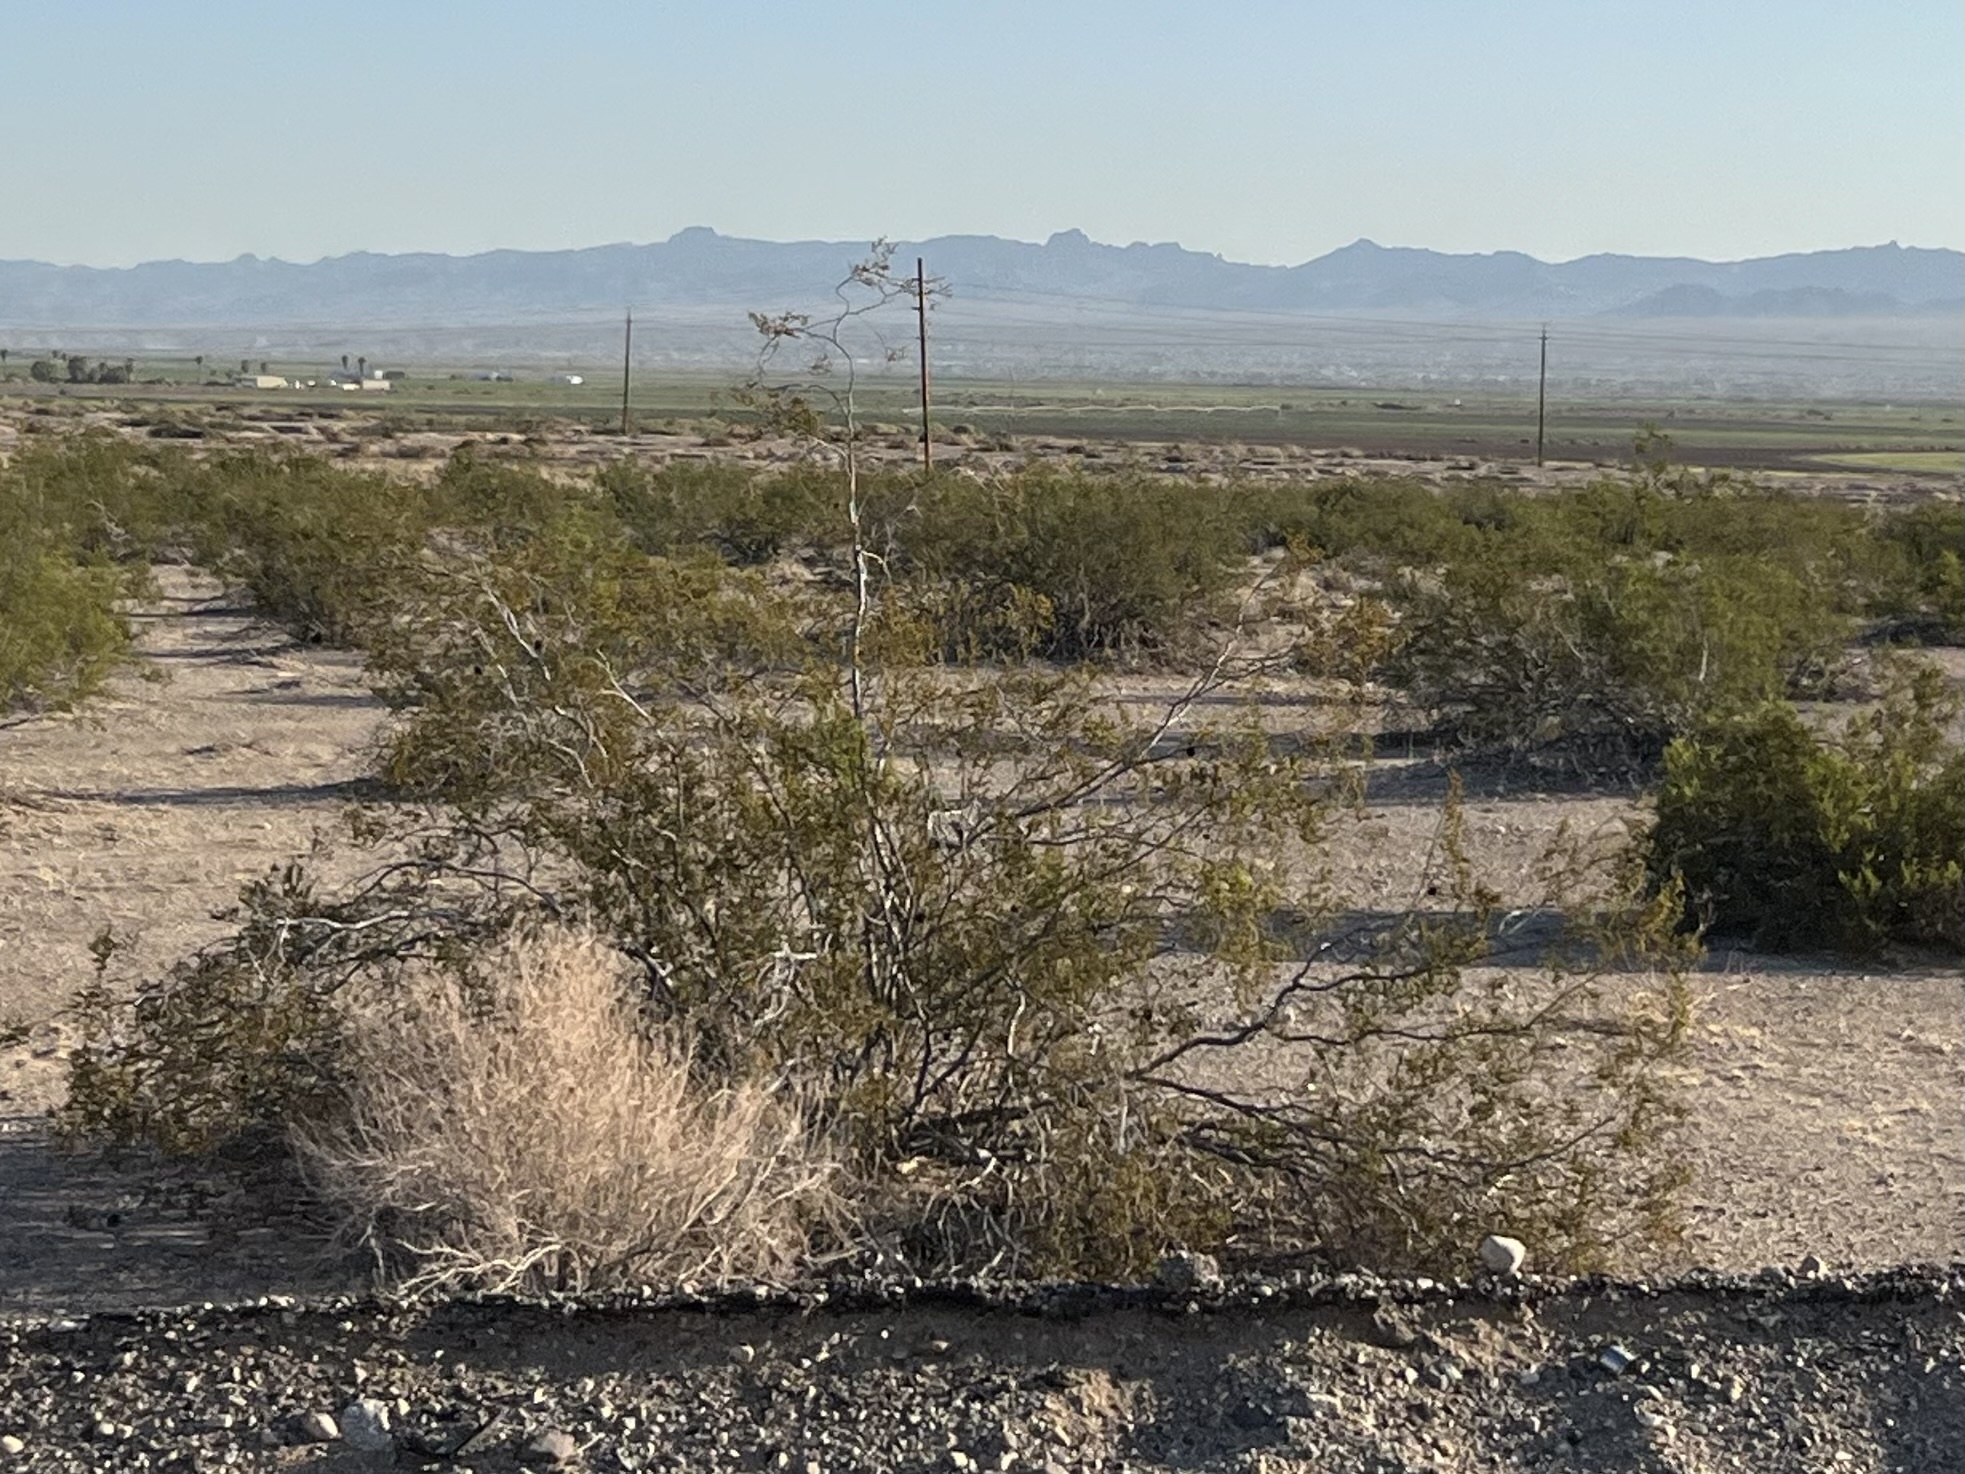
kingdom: Plantae
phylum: Tracheophyta
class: Magnoliopsida
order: Zygophyllales
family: Zygophyllaceae
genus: Larrea
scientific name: Larrea tridentata
